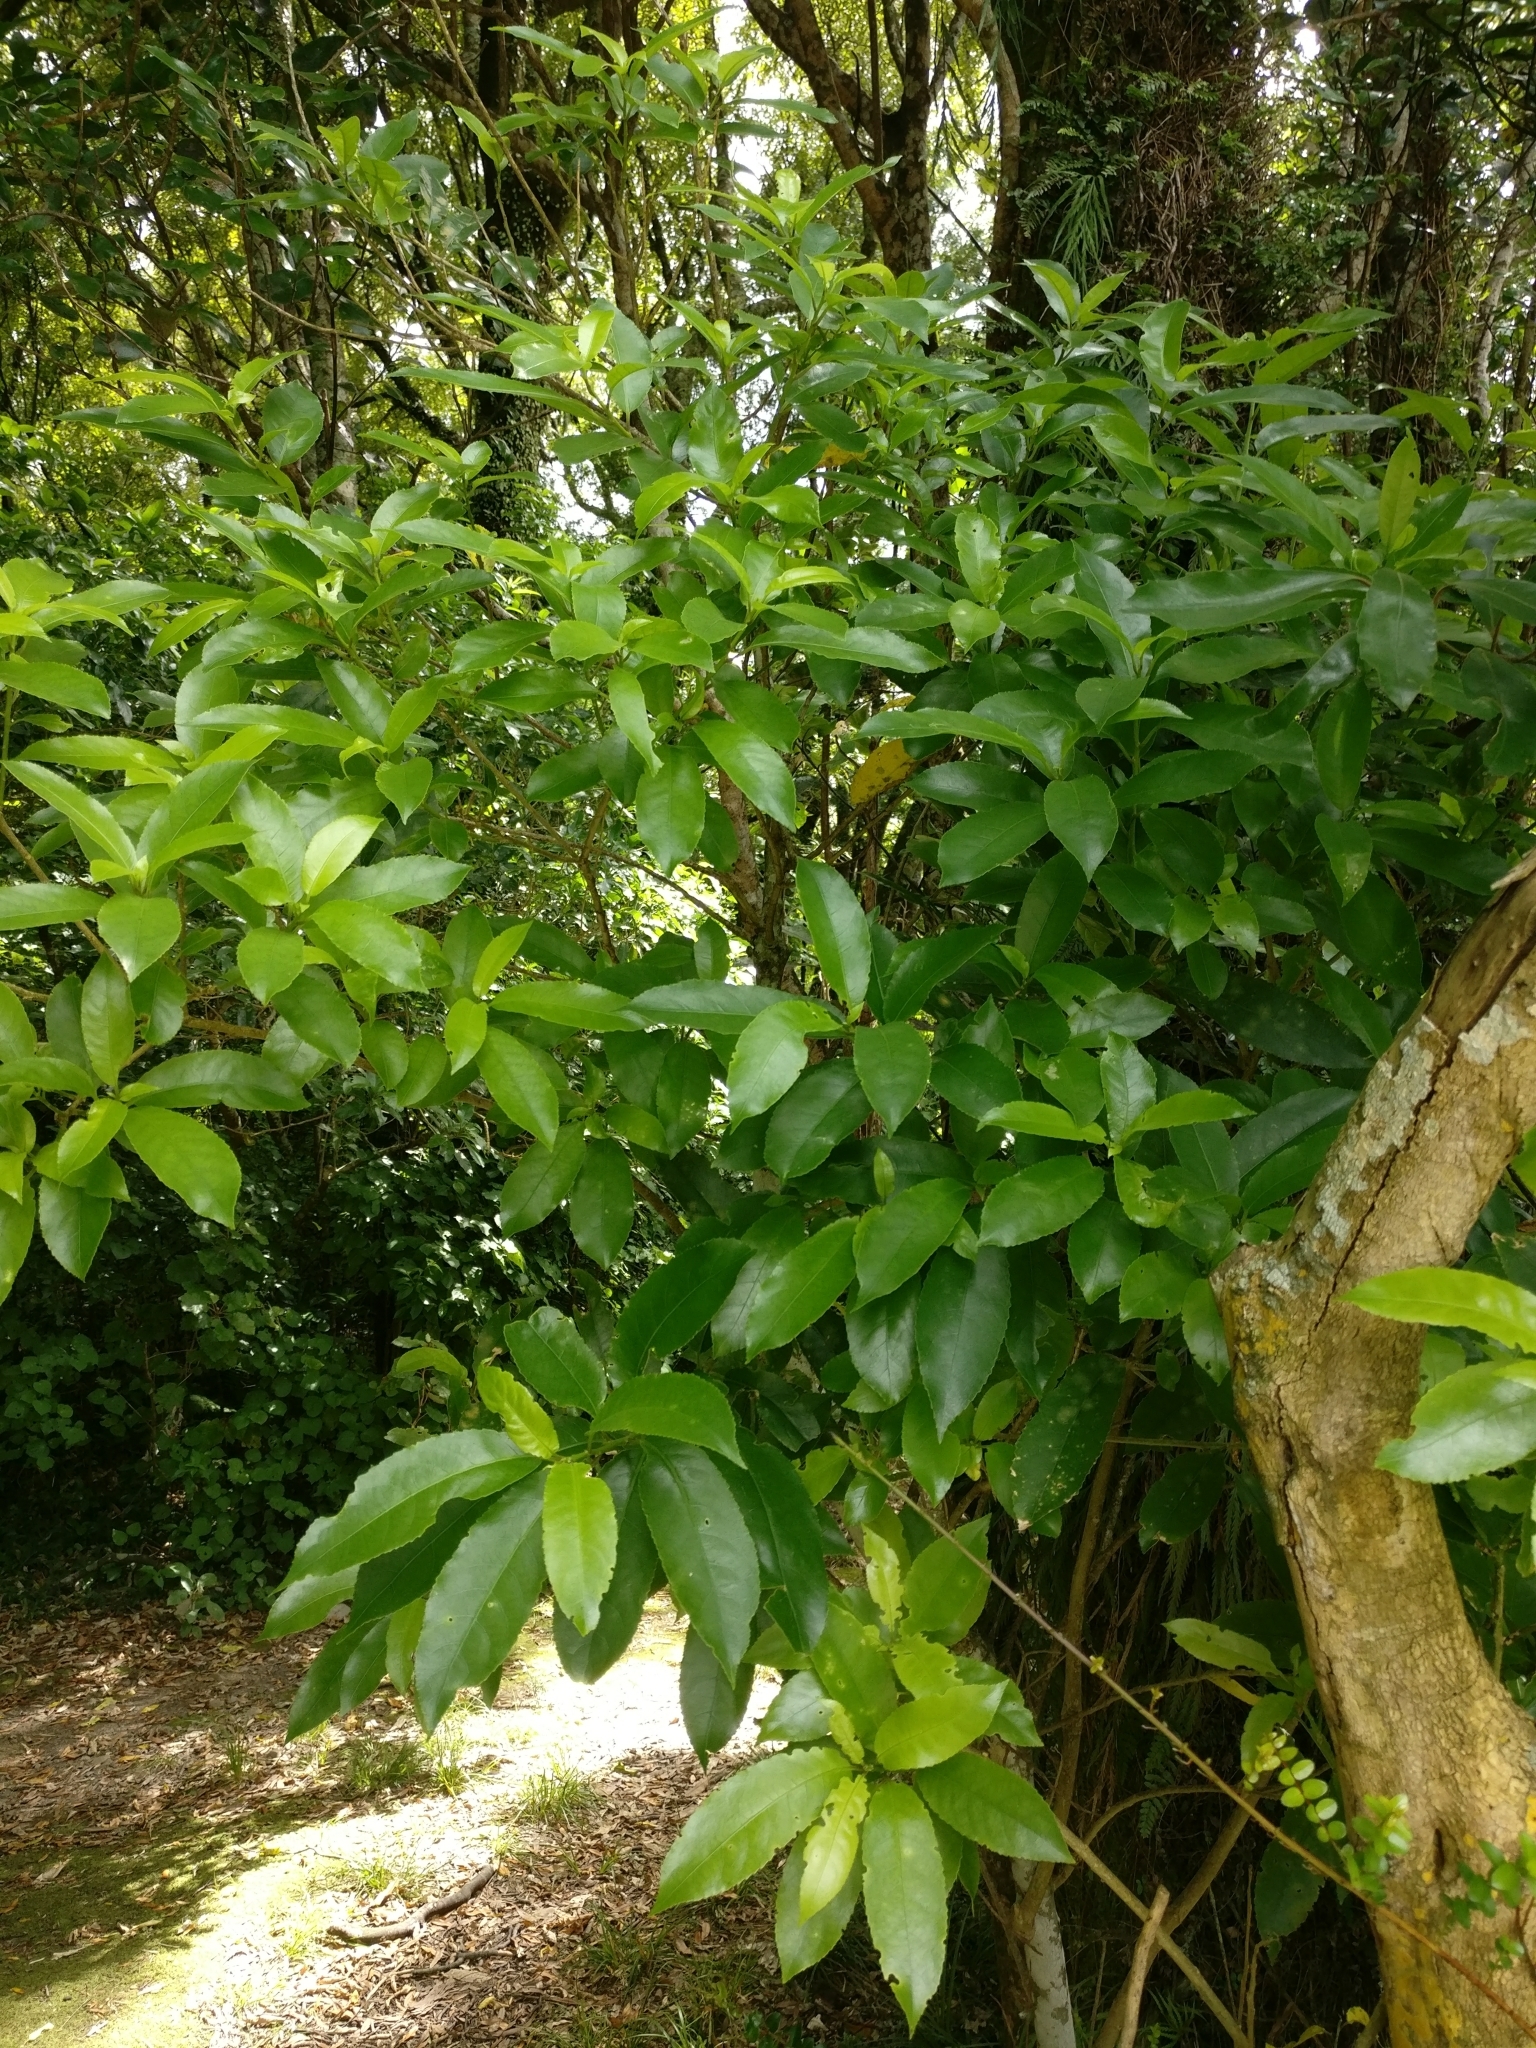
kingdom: Plantae
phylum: Tracheophyta
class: Magnoliopsida
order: Malpighiales
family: Violaceae
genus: Melicytus
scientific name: Melicytus ramiflorus
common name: Mahoe
